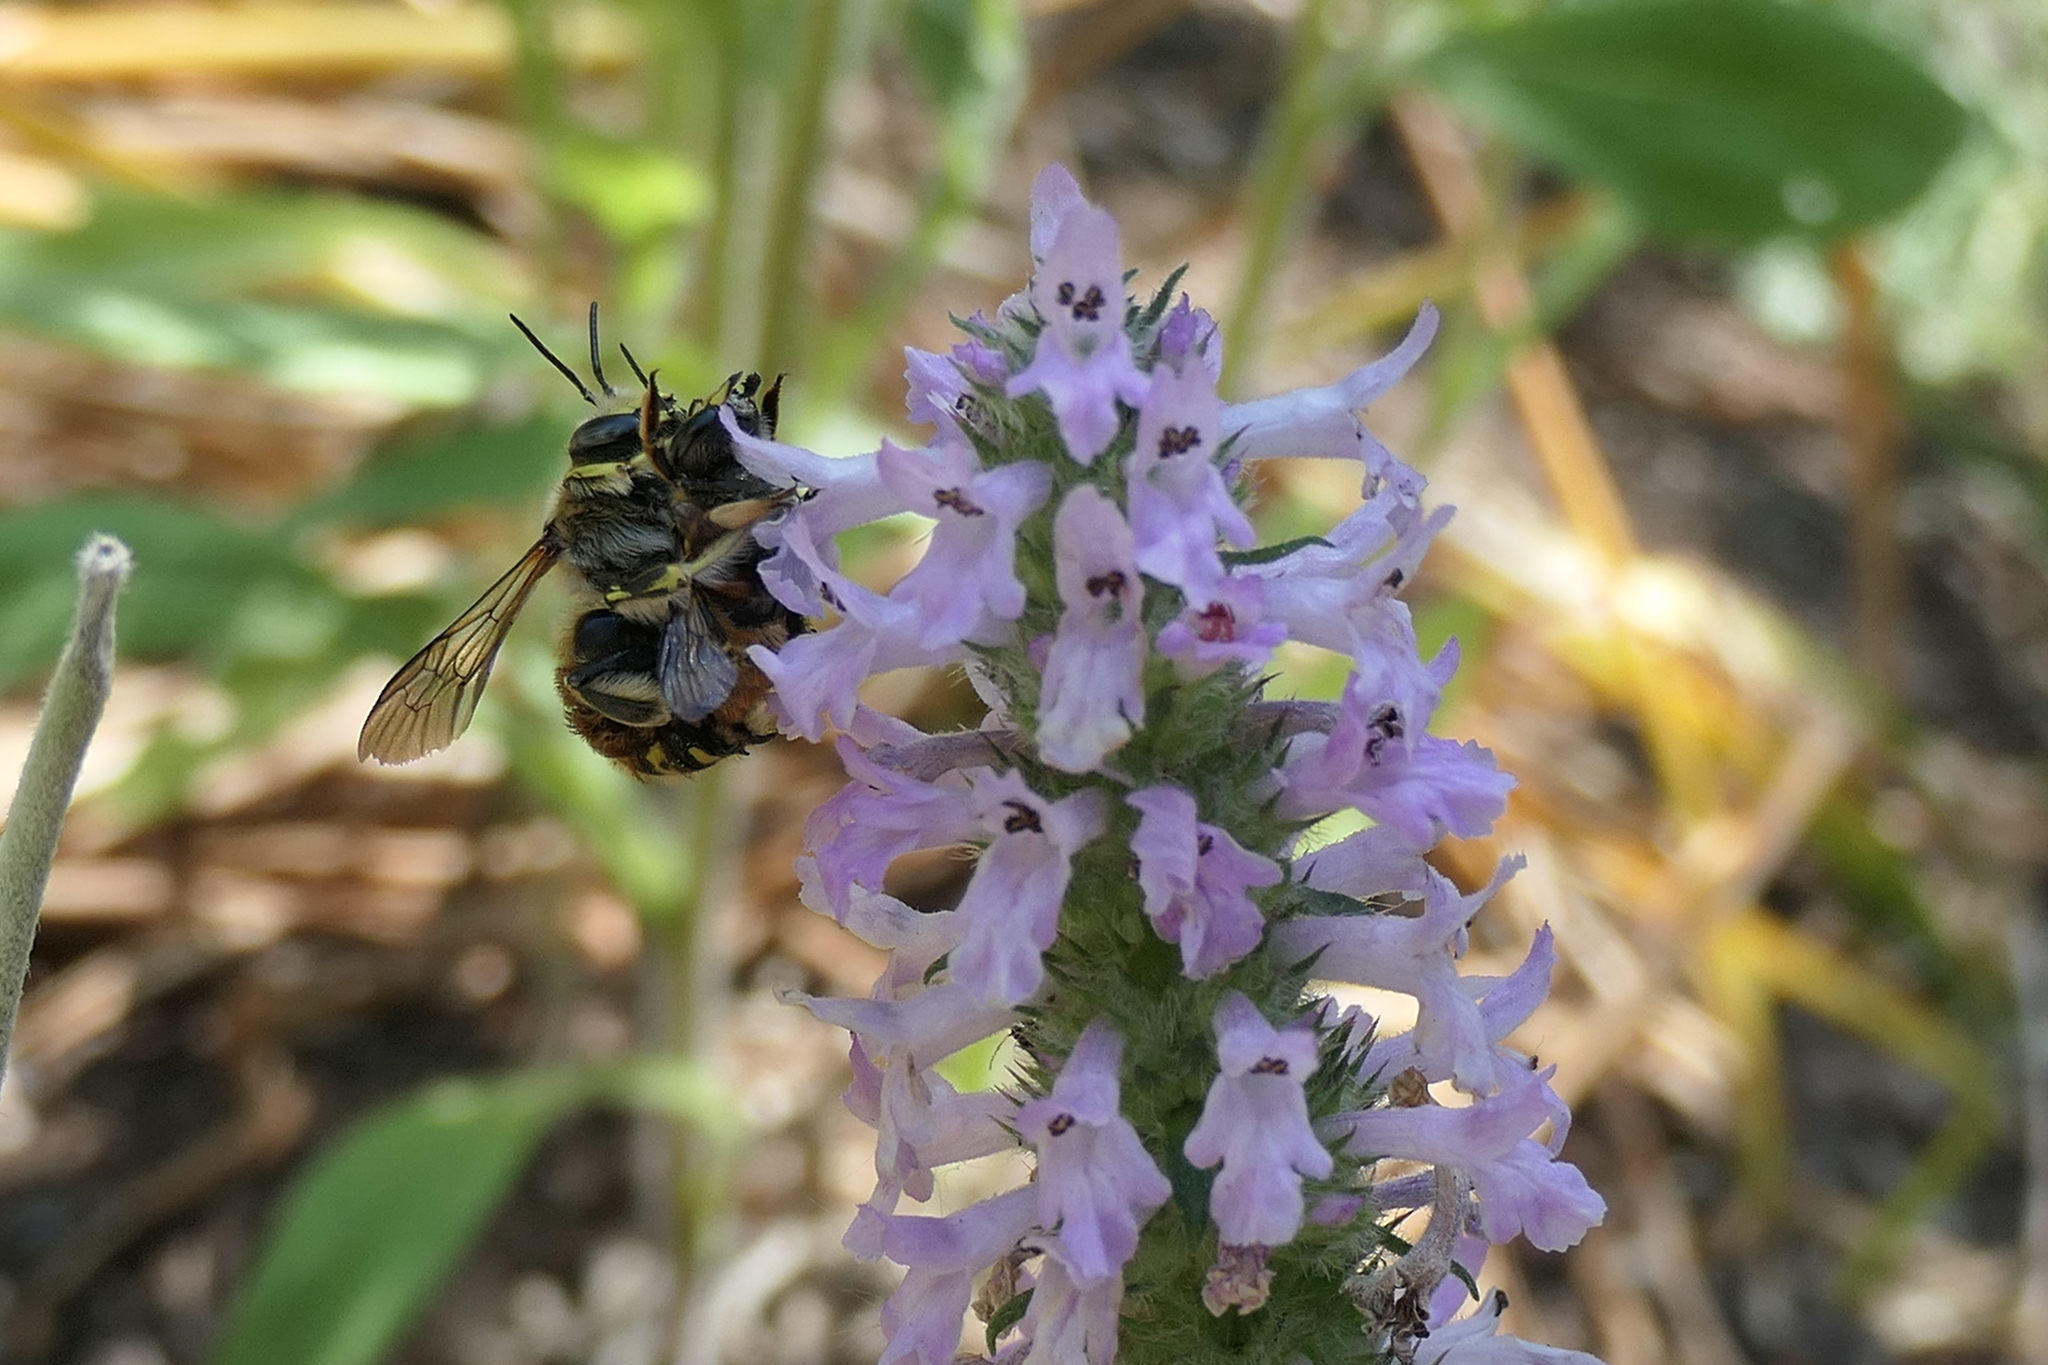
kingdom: Animalia
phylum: Arthropoda
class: Insecta
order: Hymenoptera
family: Megachilidae
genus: Anthidium
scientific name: Anthidium manicatum
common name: Wool carder bee
